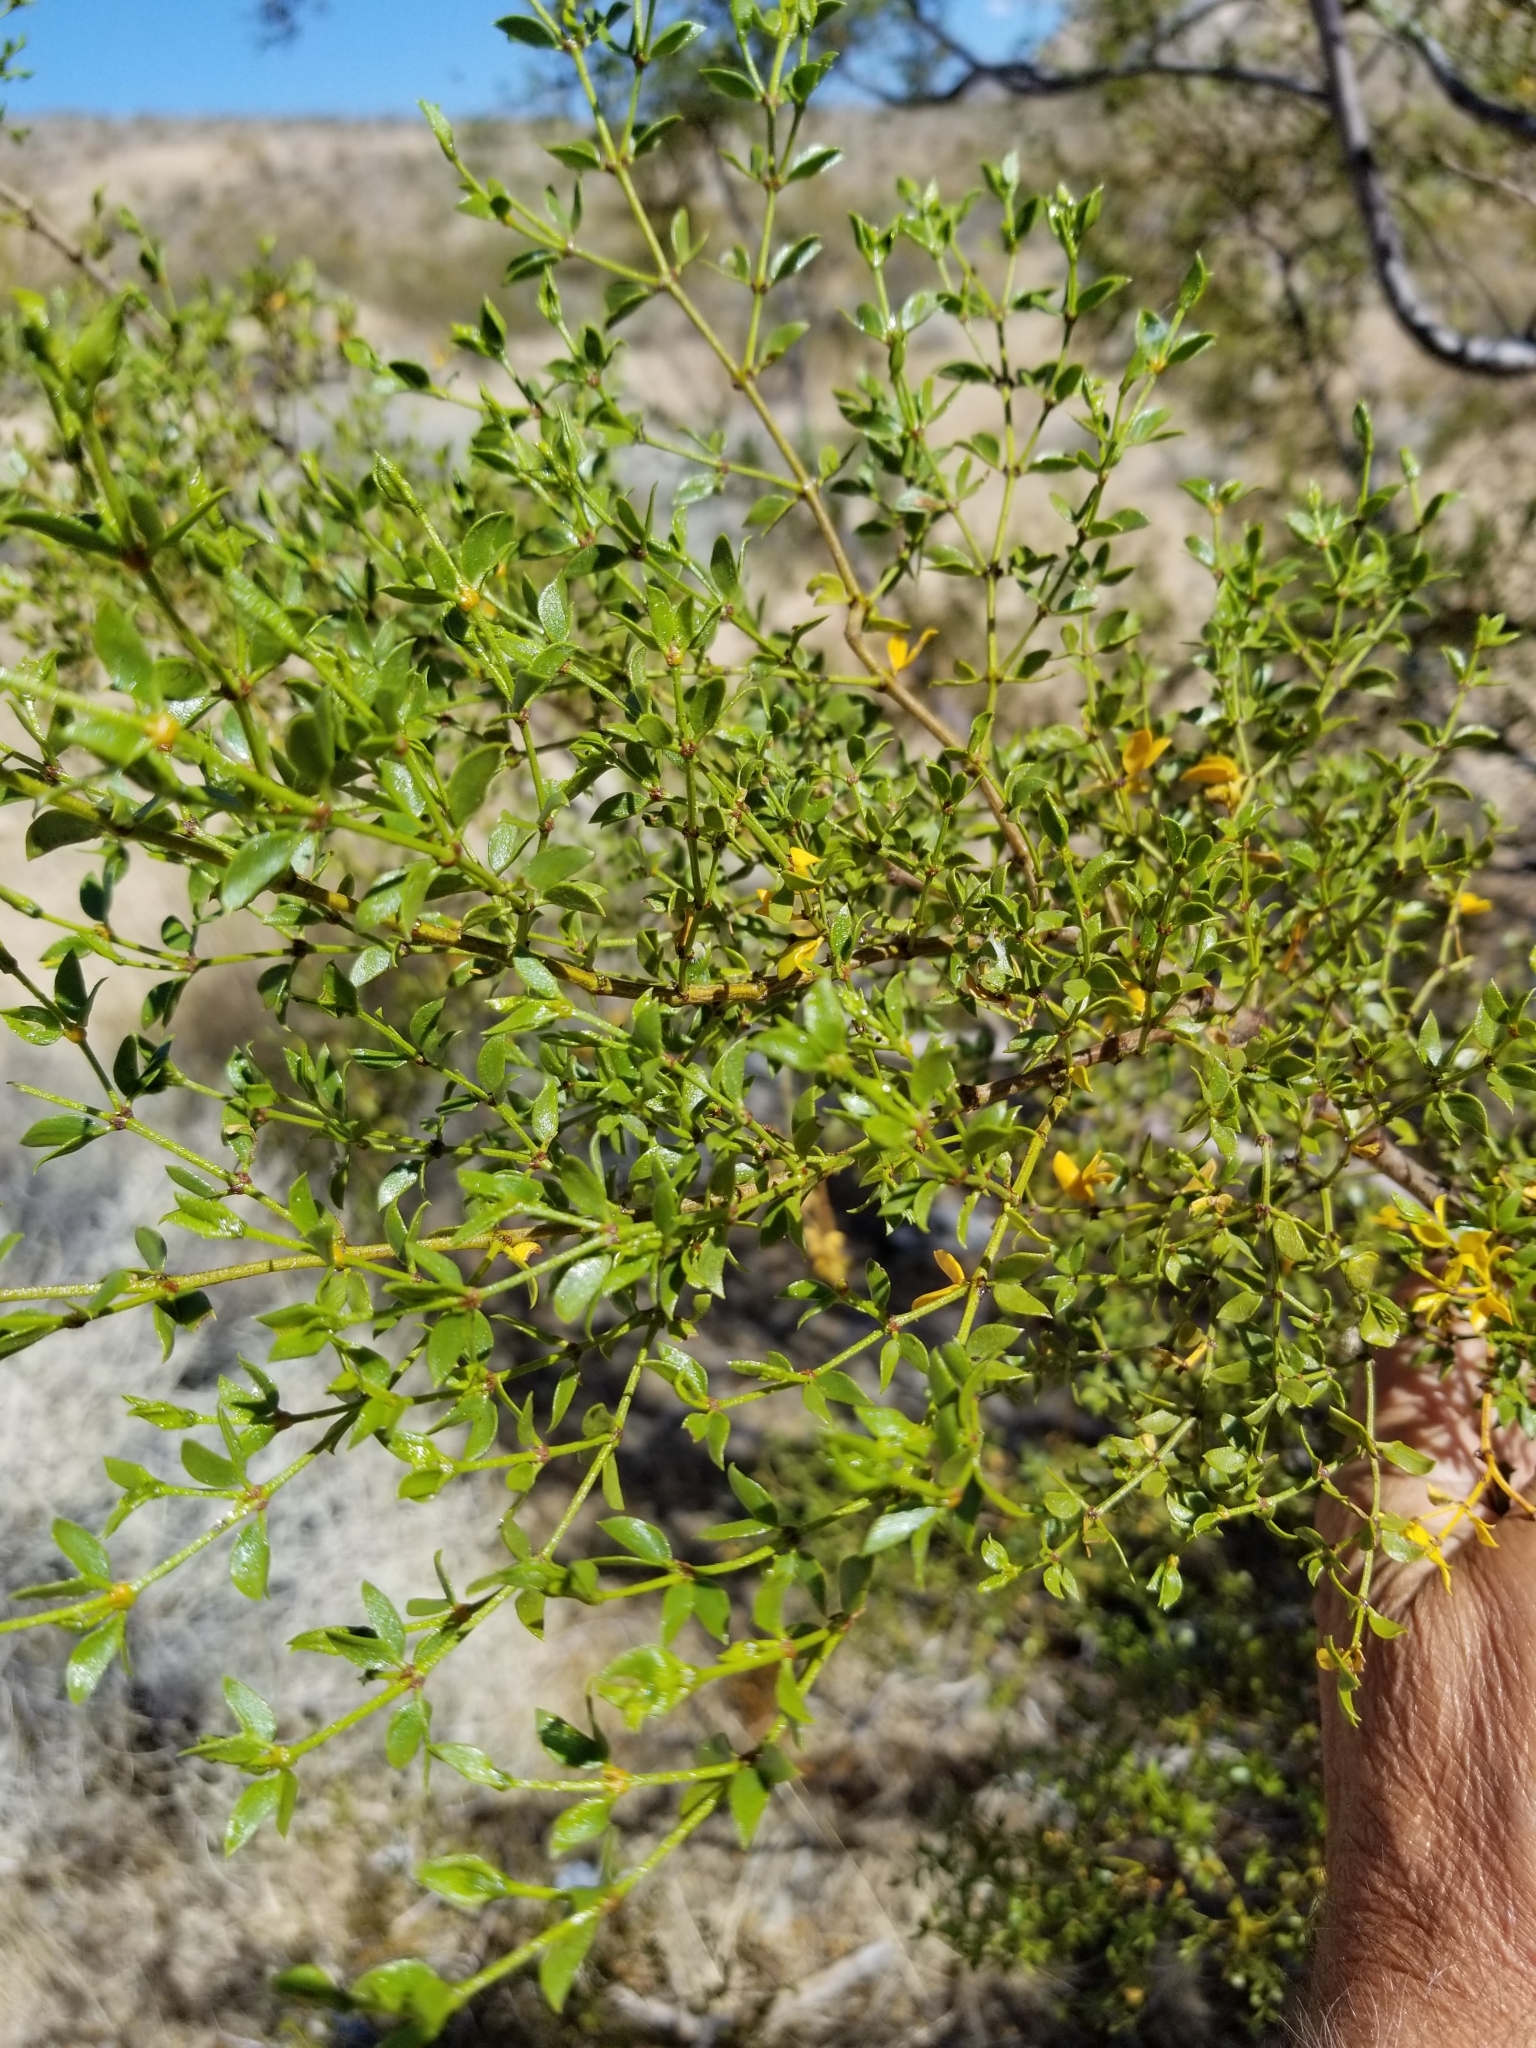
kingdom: Plantae
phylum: Tracheophyta
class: Magnoliopsida
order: Zygophyllales
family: Zygophyllaceae
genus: Larrea
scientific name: Larrea tridentata
